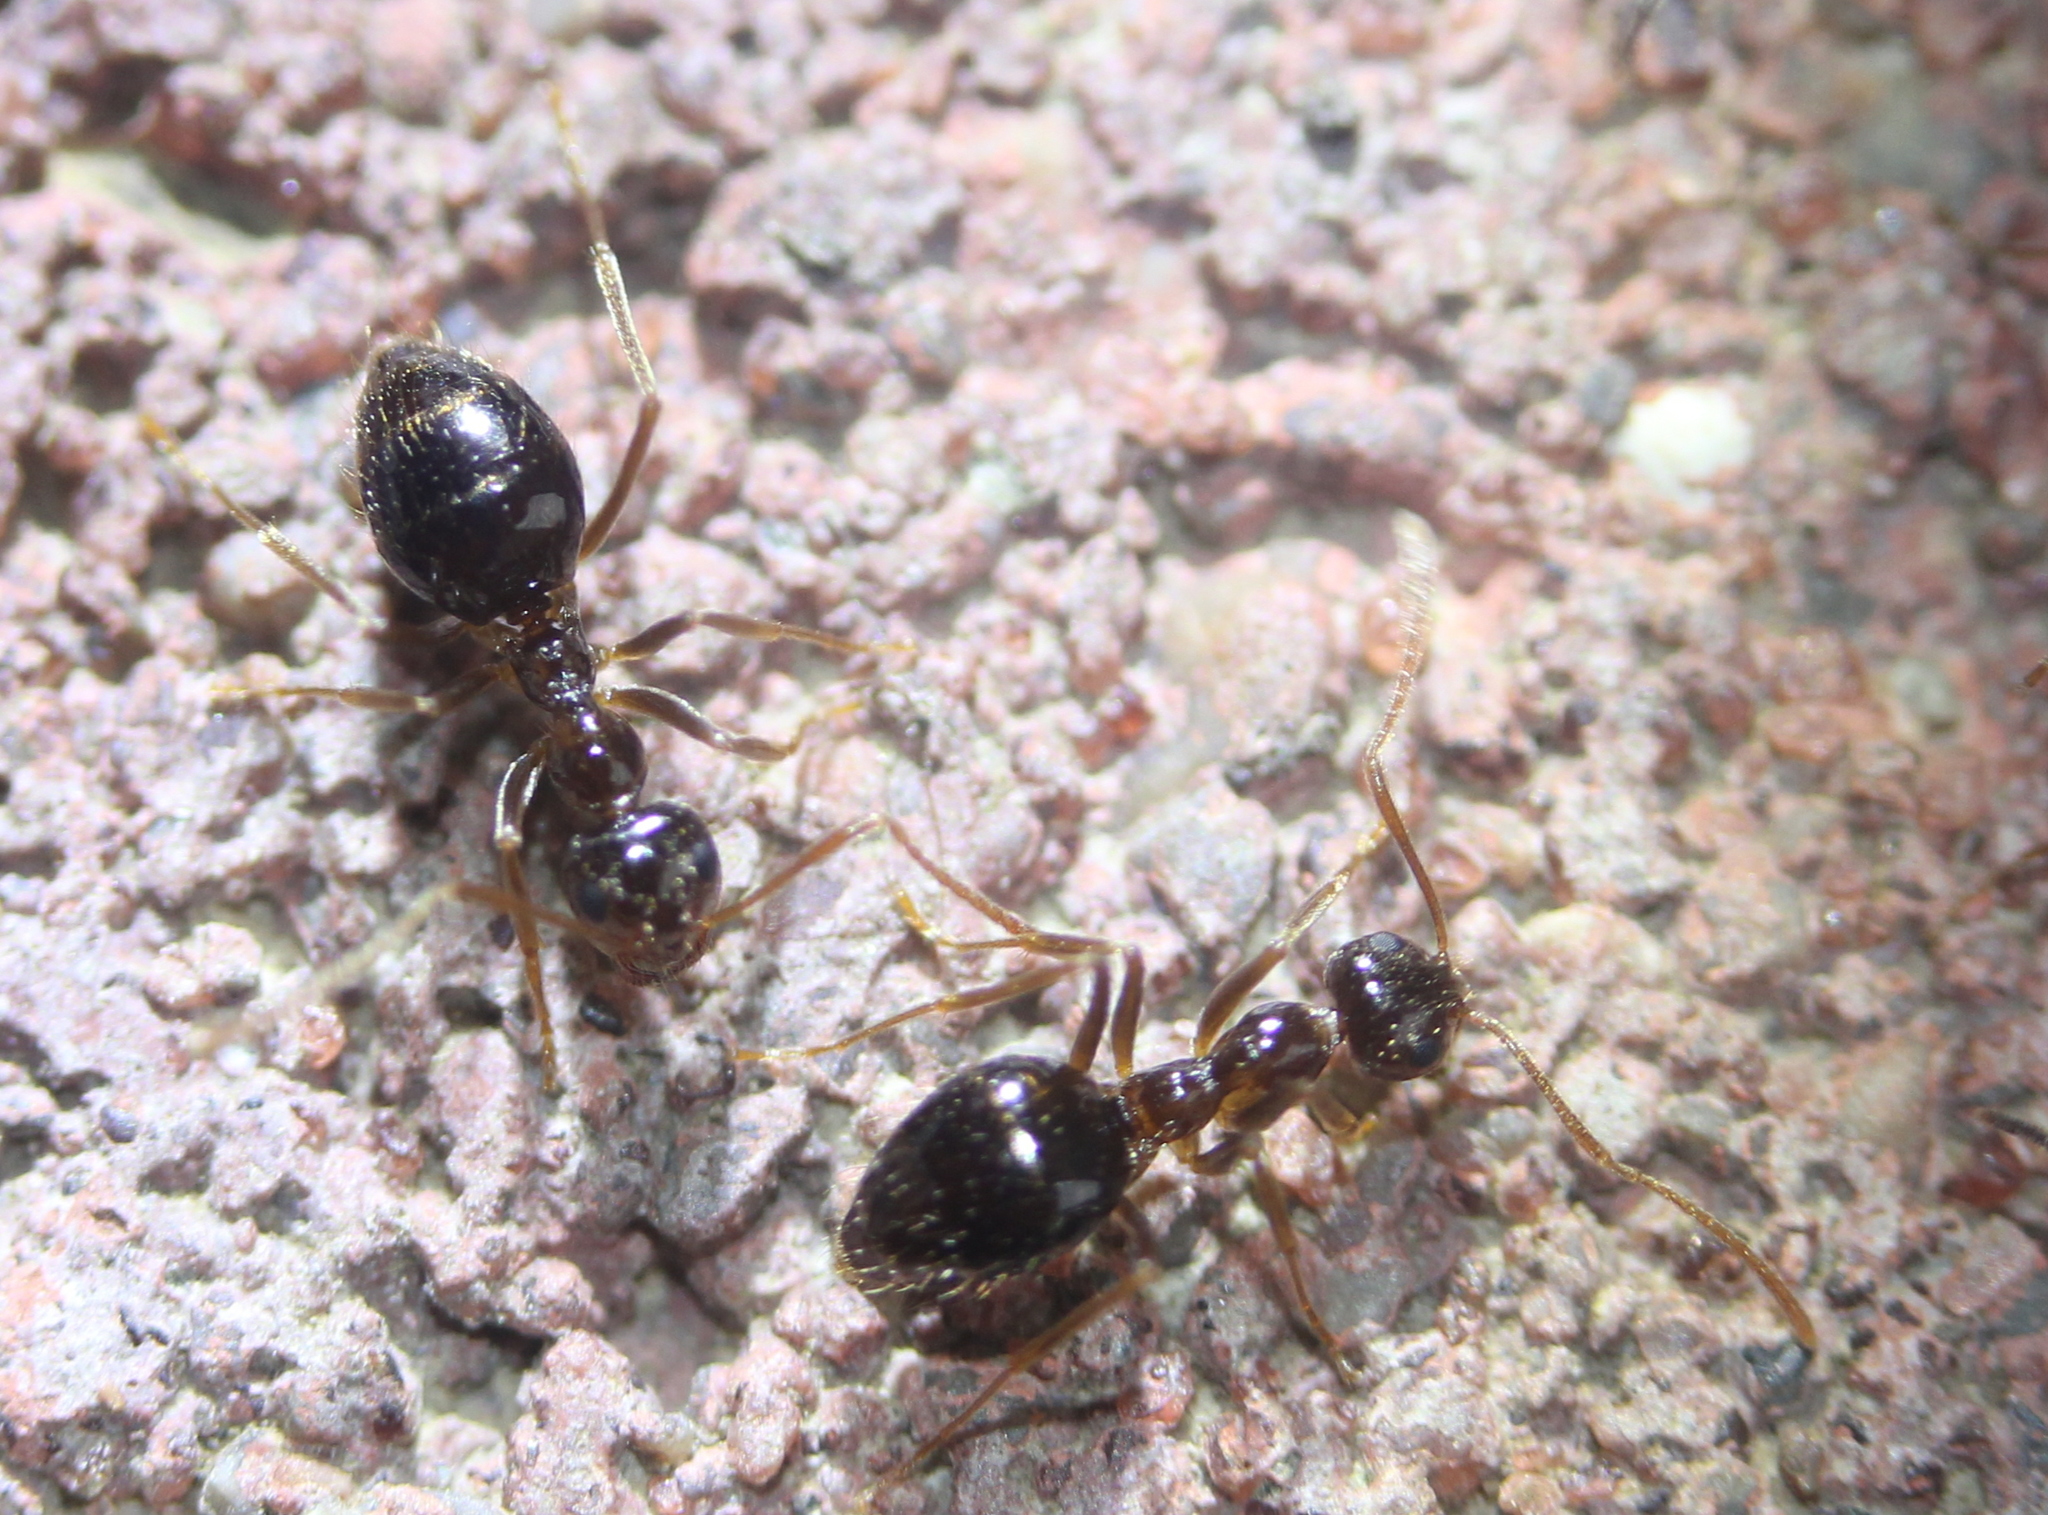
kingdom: Animalia
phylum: Arthropoda
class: Insecta
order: Hymenoptera
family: Formicidae
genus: Prenolepis
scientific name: Prenolepis imparis
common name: Small honey ant
